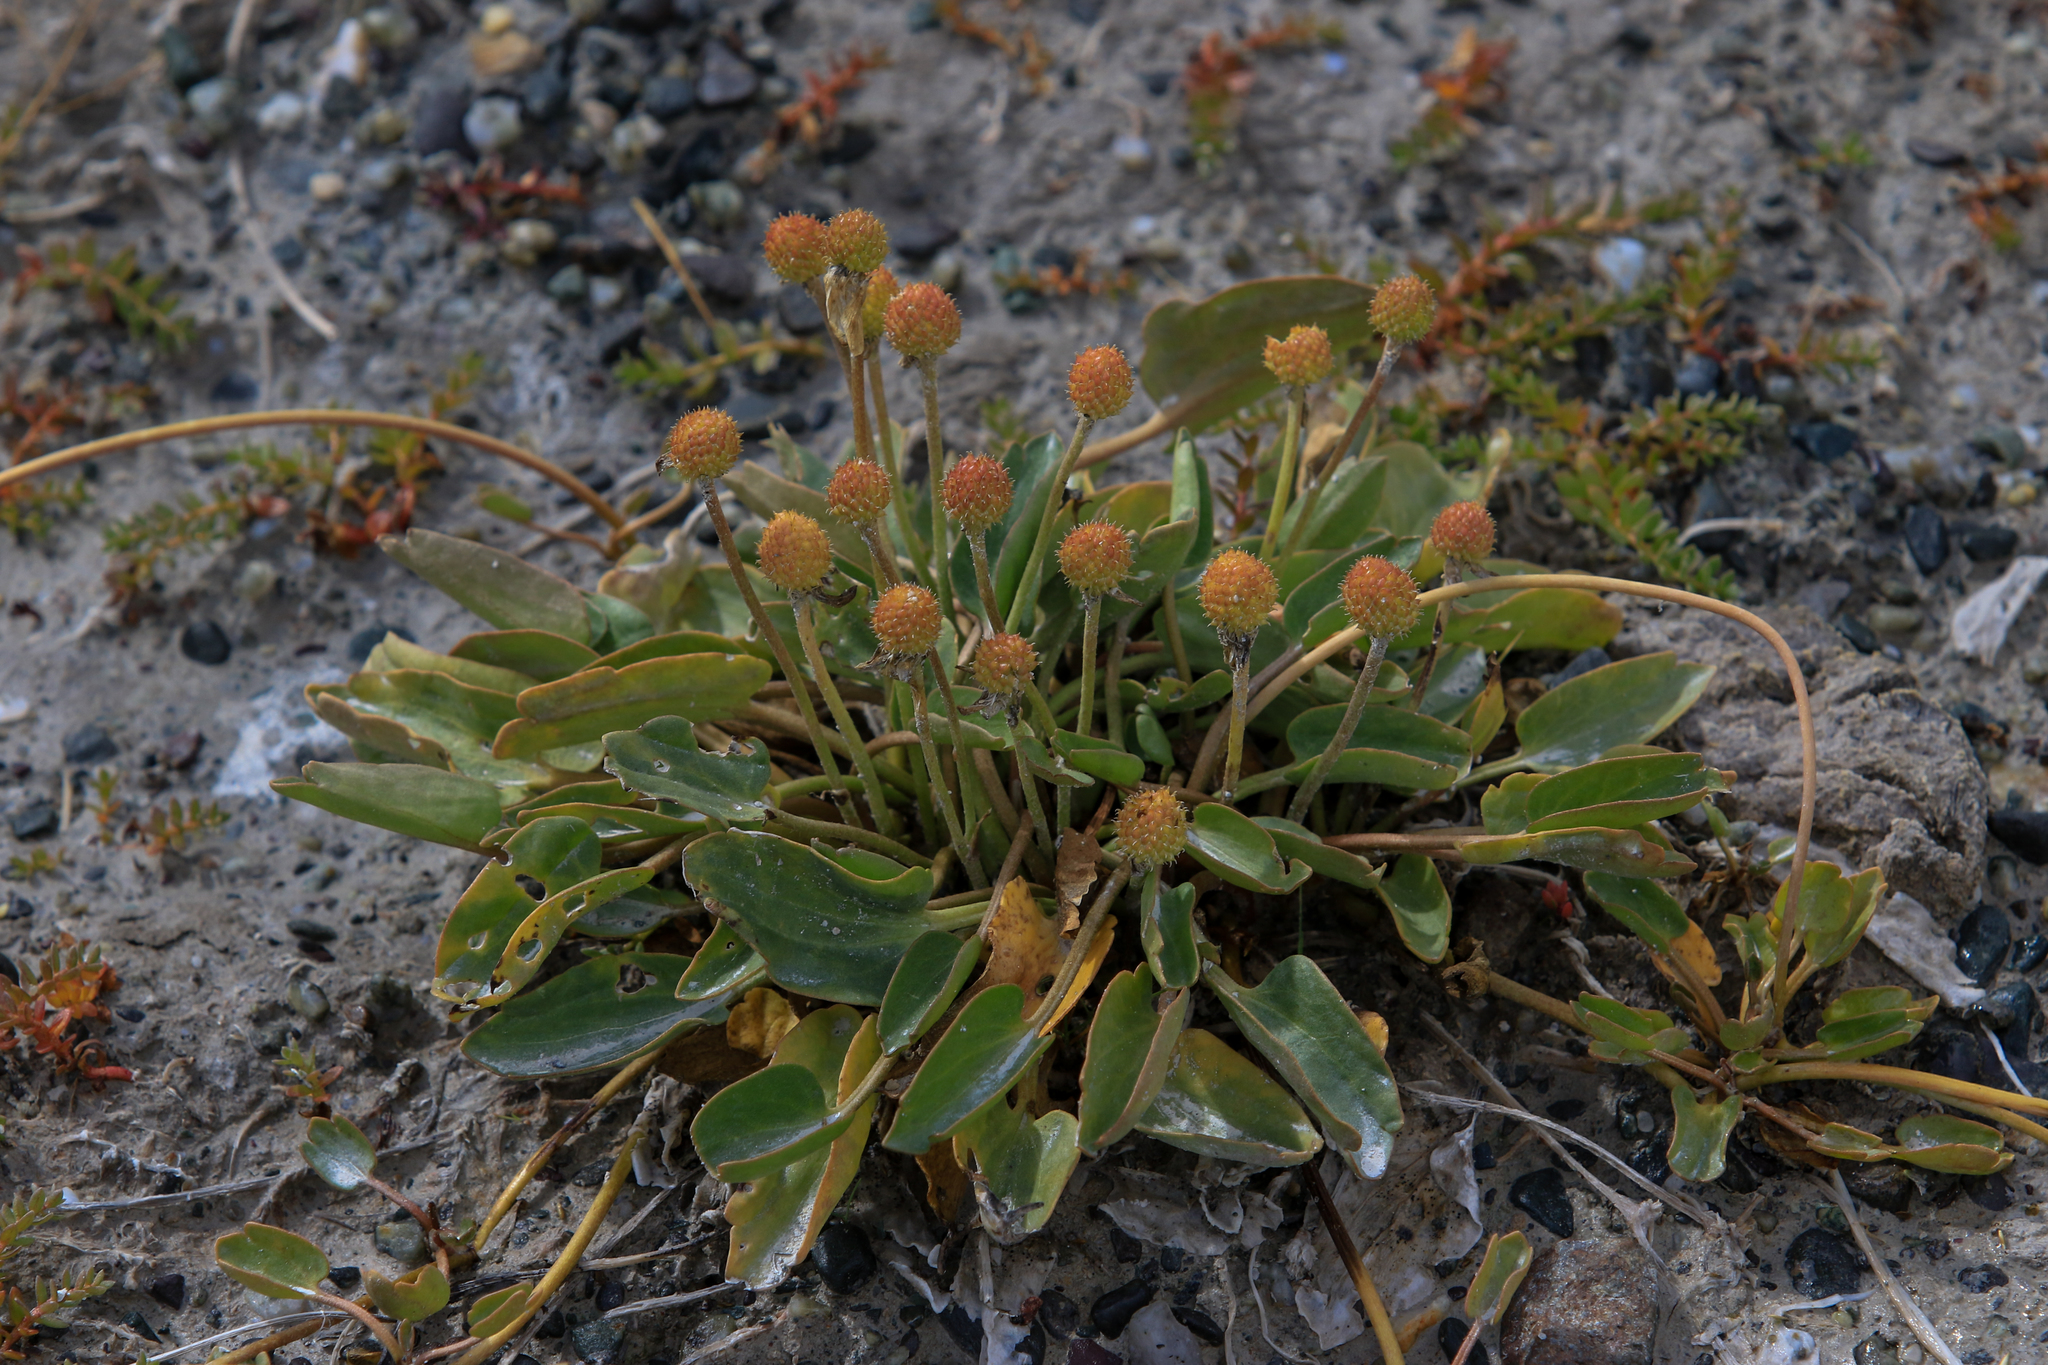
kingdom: Plantae
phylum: Tracheophyta
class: Magnoliopsida
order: Ranunculales
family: Ranunculaceae
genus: Halerpestes
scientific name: Halerpestes ruthenica
